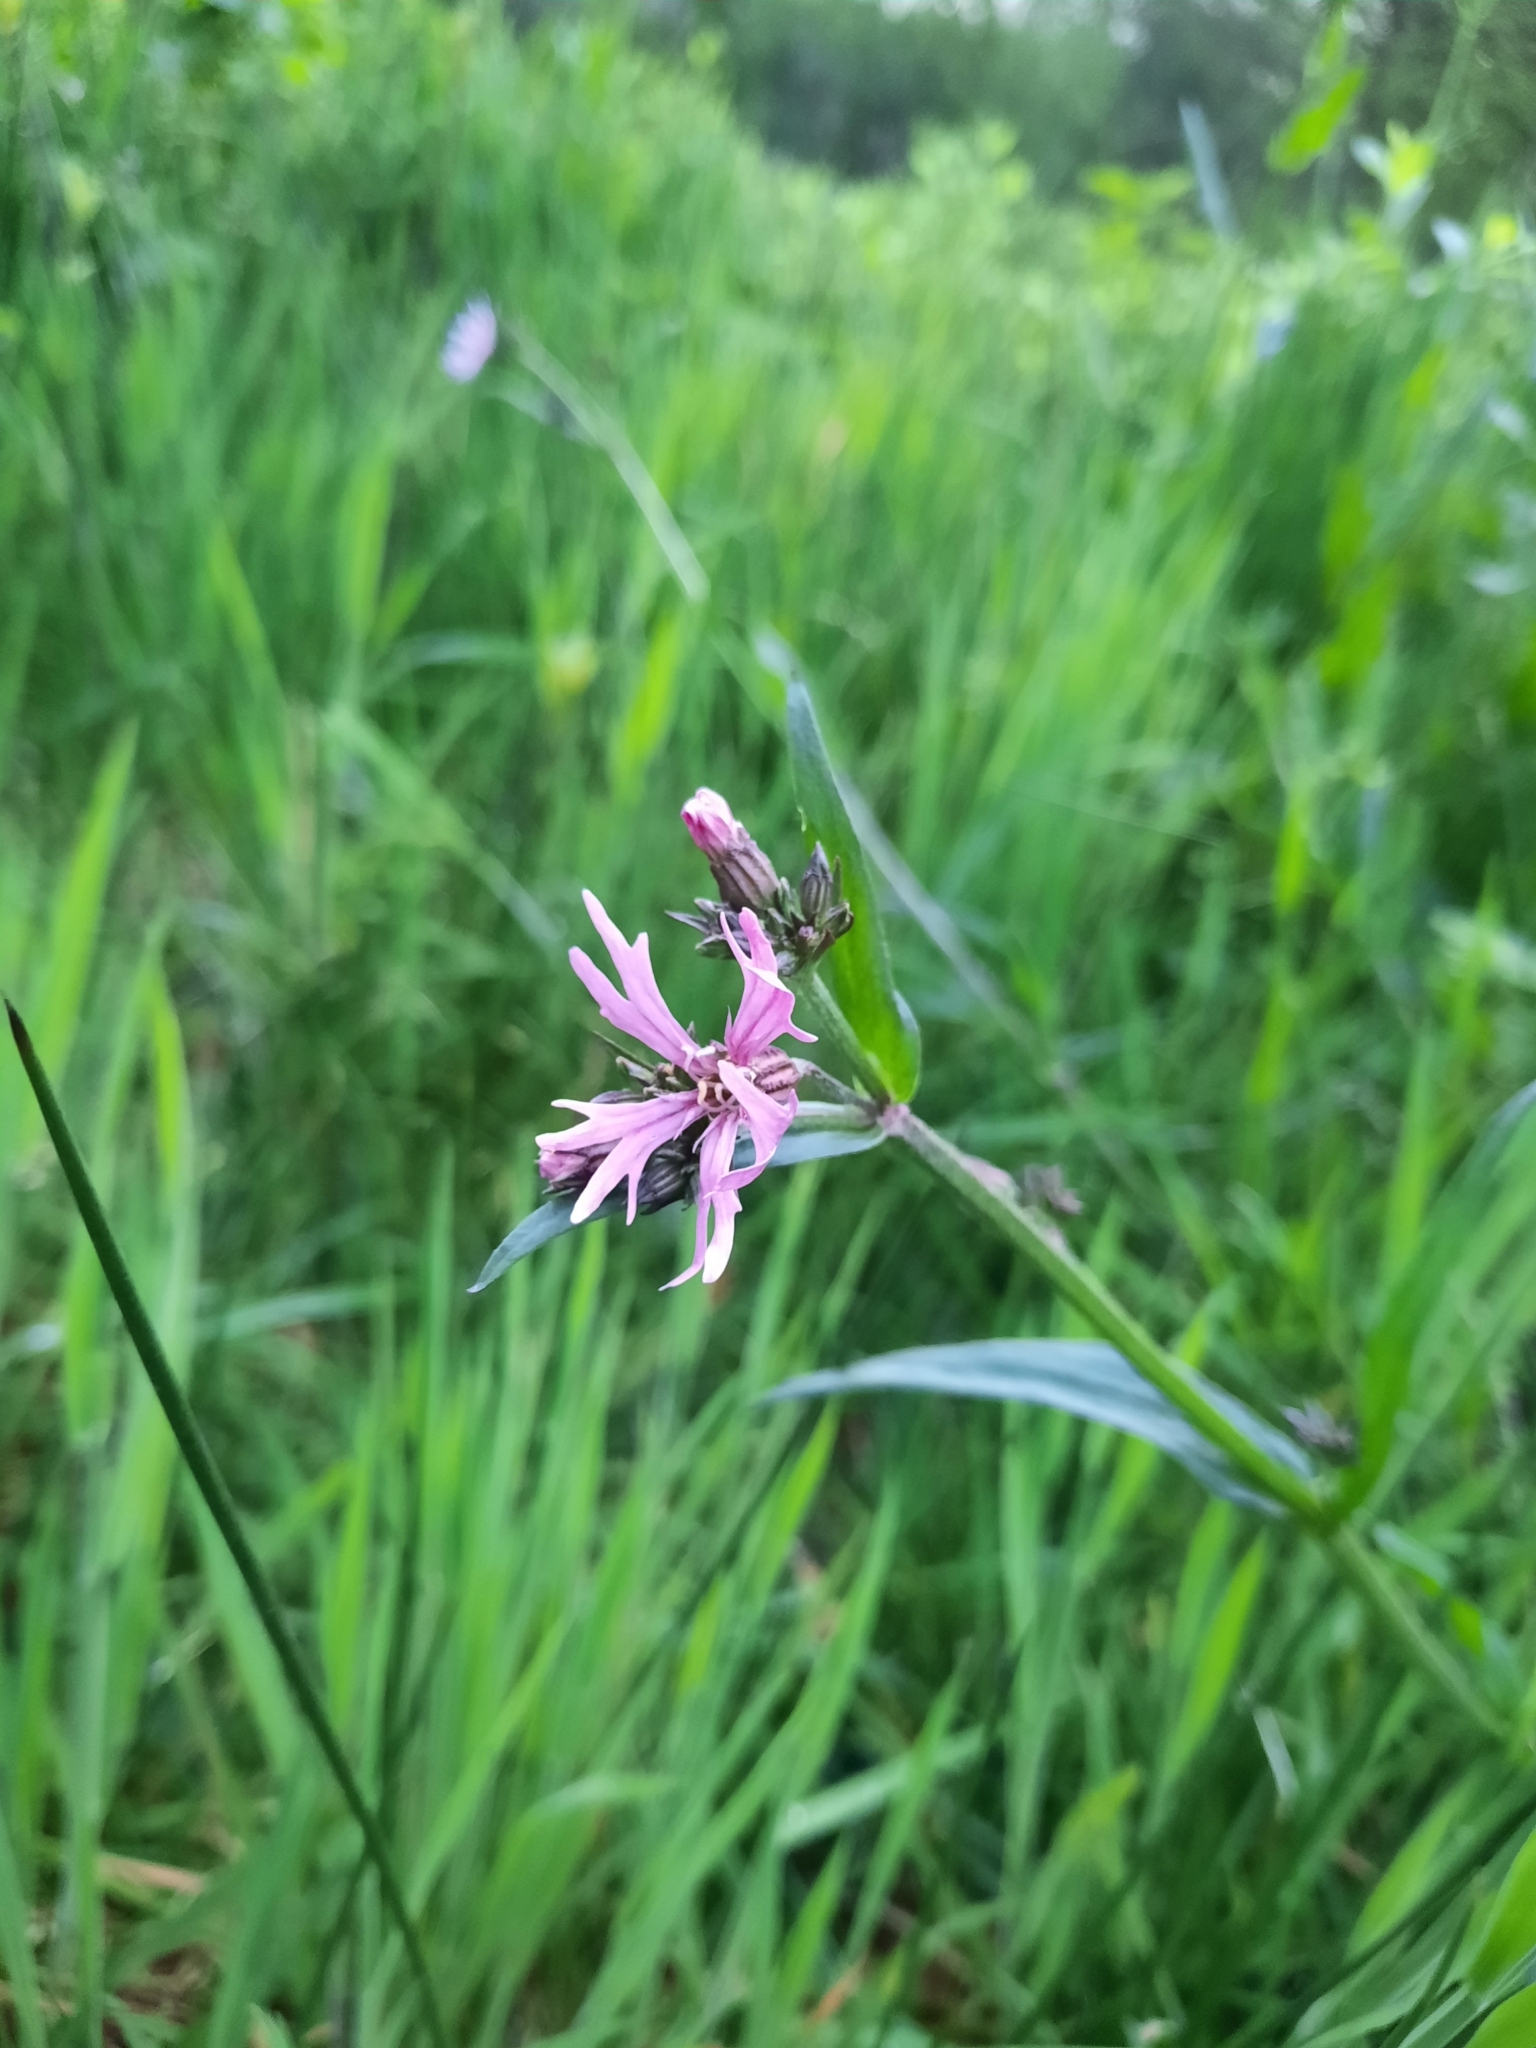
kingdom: Plantae
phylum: Tracheophyta
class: Magnoliopsida
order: Caryophyllales
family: Caryophyllaceae
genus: Silene
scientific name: Silene flos-cuculi
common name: Ragged-robin
